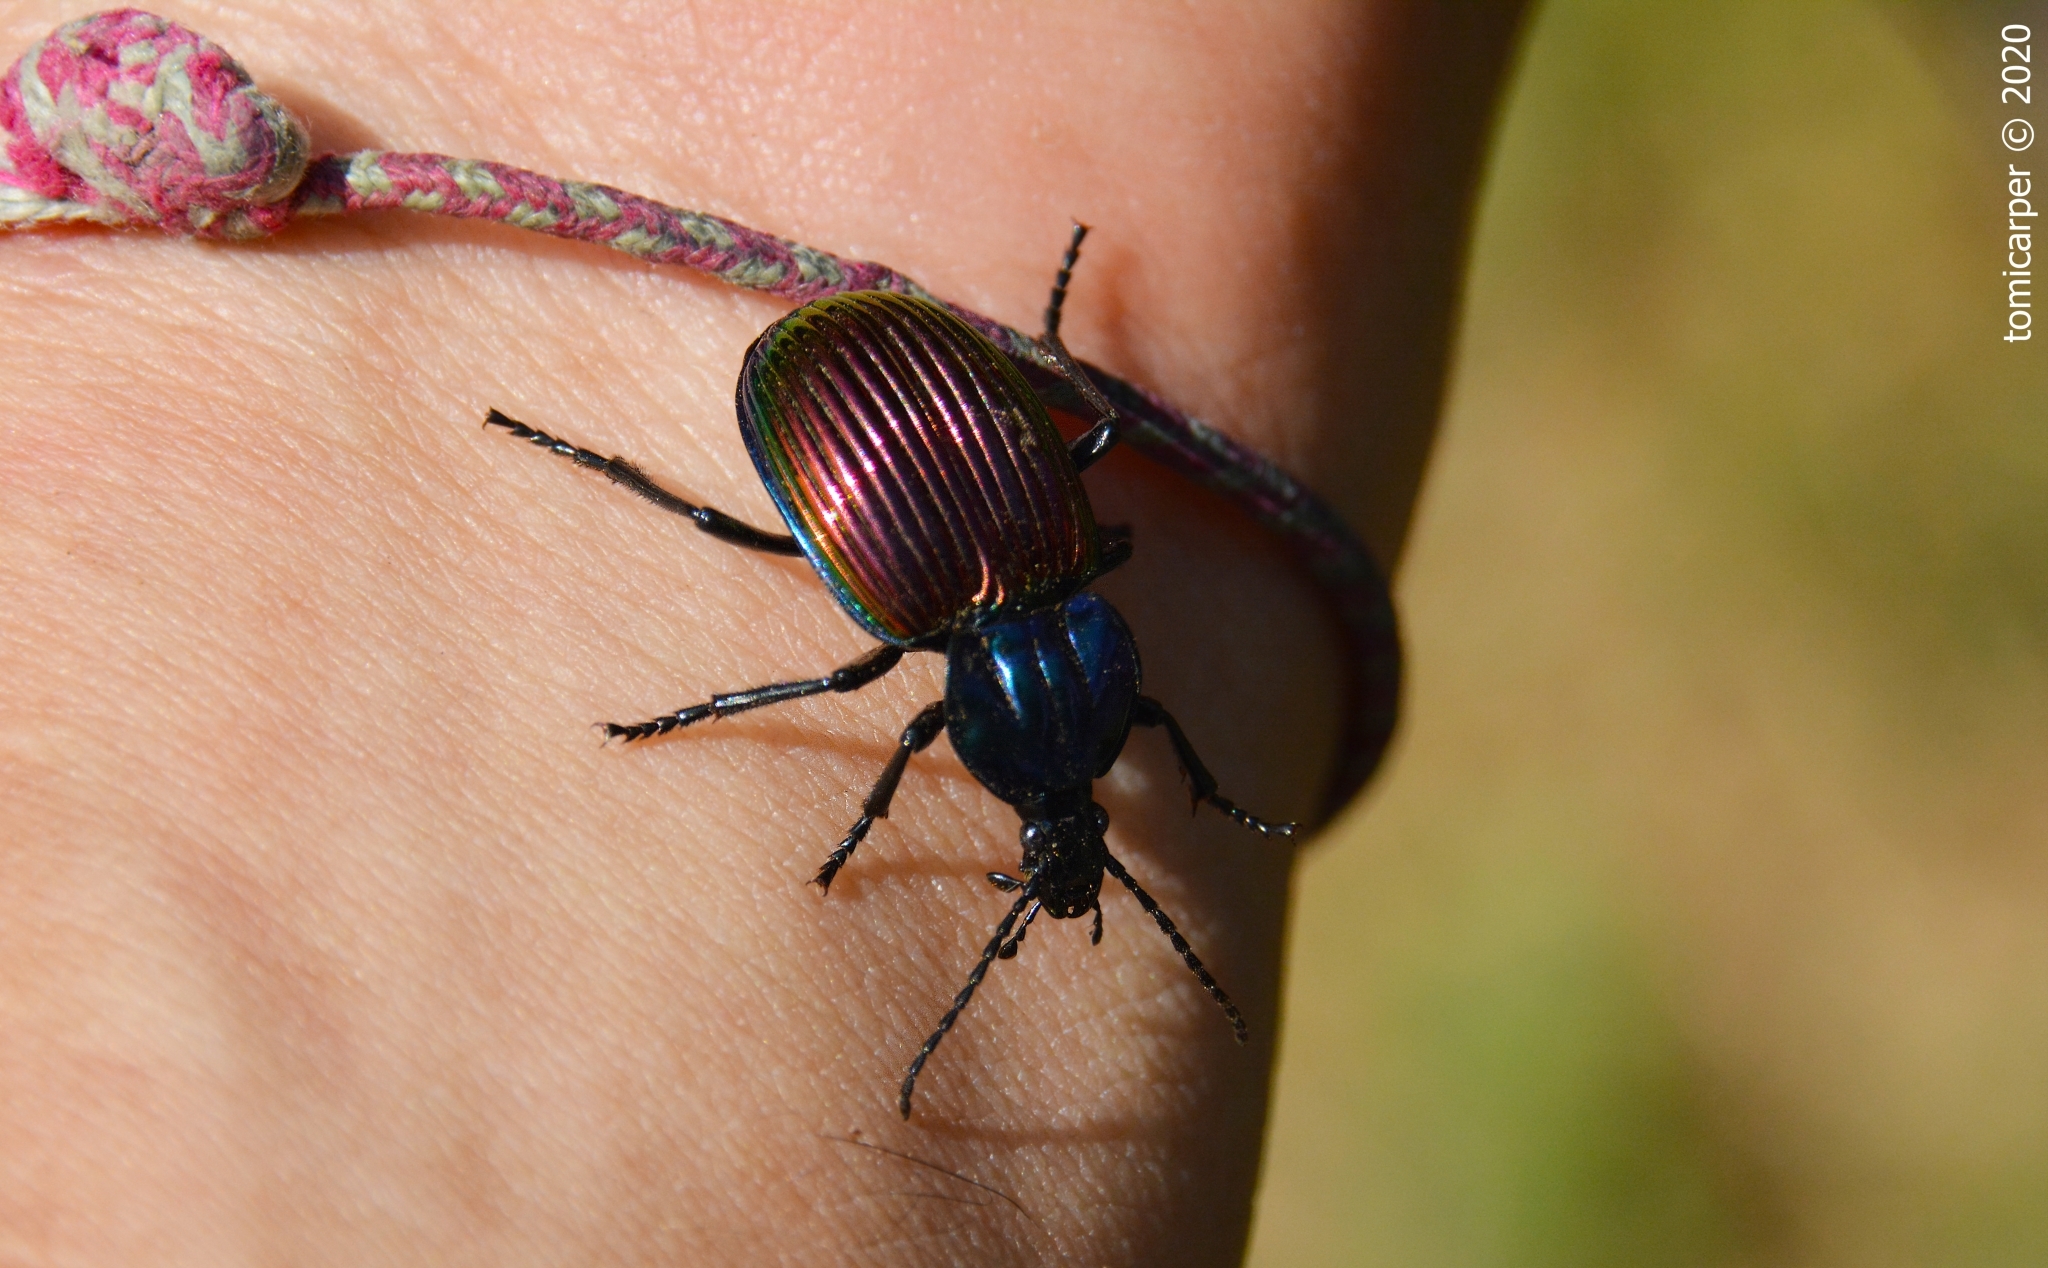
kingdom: Animalia
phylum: Arthropoda
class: Insecta
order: Coleoptera
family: Carabidae
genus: Brachygnathus
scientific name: Brachygnathus festivus
